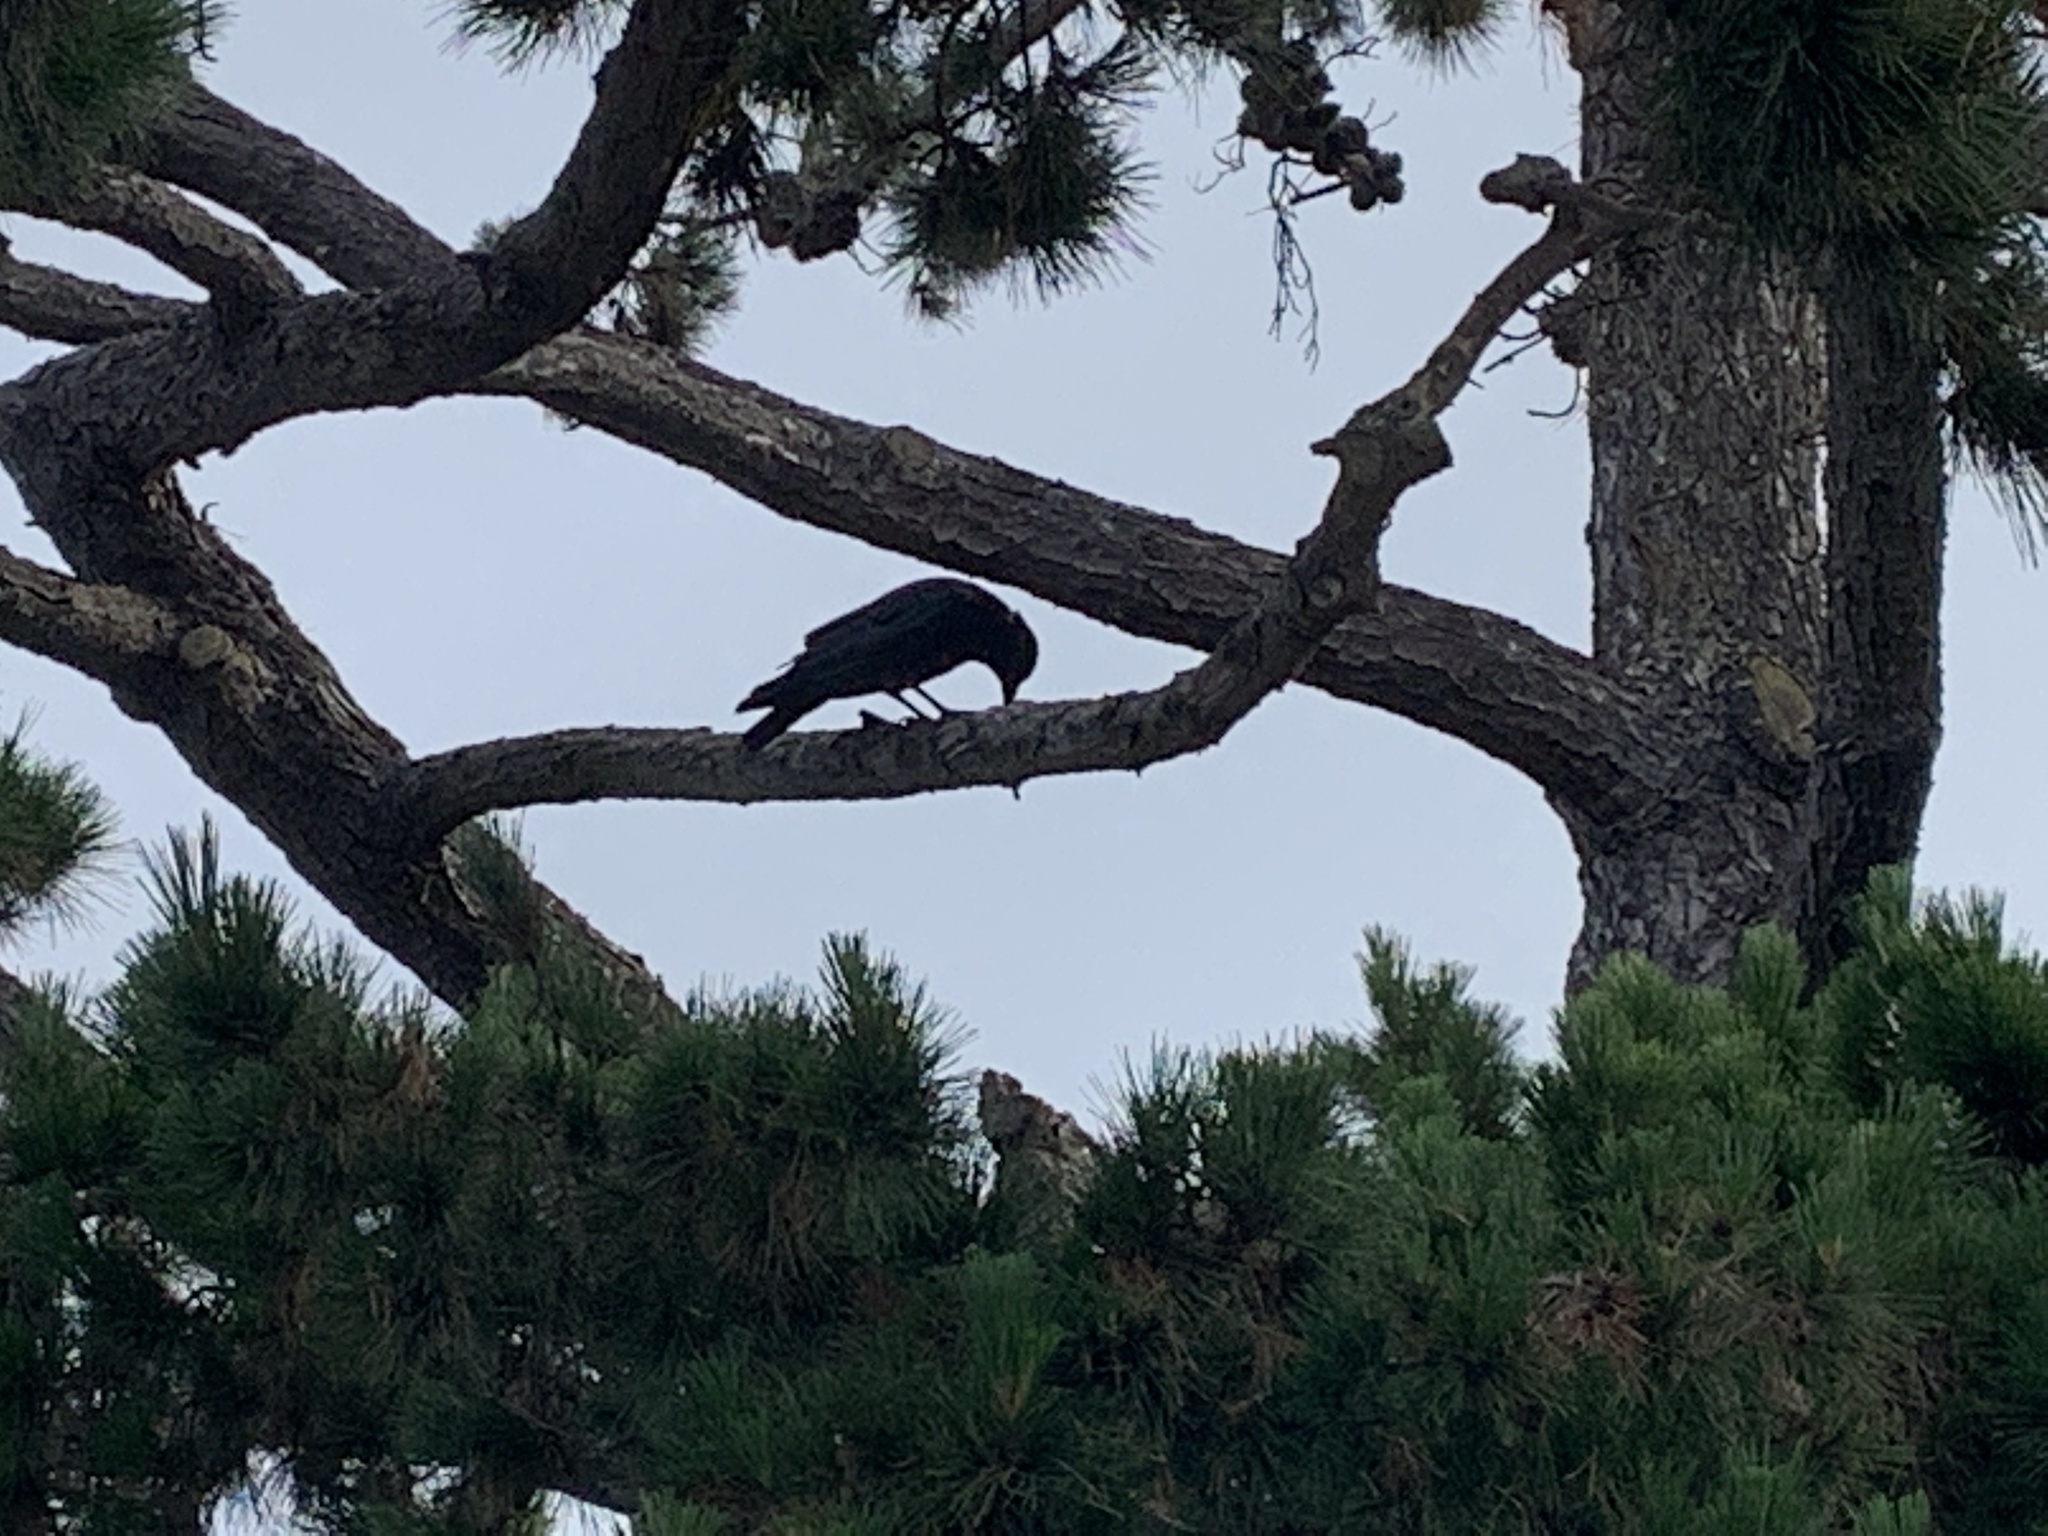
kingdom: Animalia
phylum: Chordata
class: Aves
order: Passeriformes
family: Corvidae
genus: Corvus
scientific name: Corvus brachyrhynchos
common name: American crow
